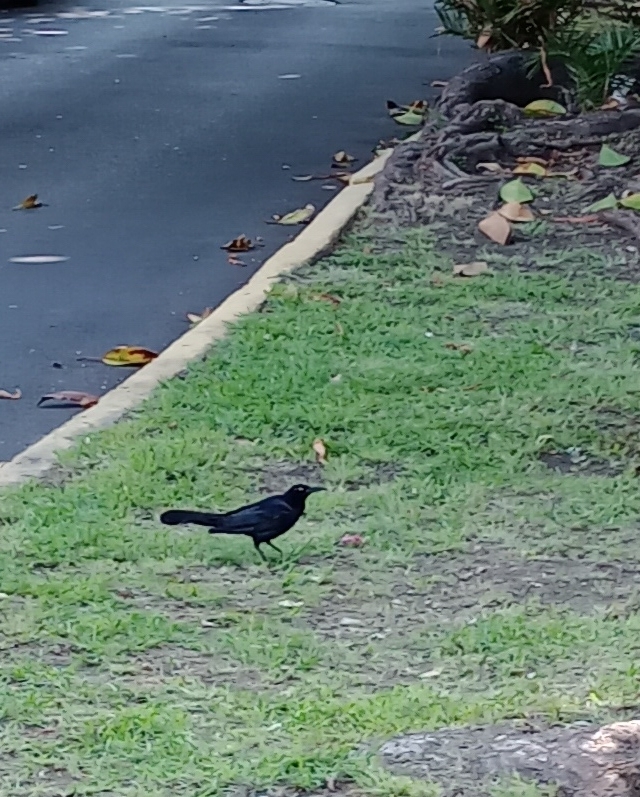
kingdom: Animalia
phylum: Chordata
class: Aves
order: Passeriformes
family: Icteridae
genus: Quiscalus
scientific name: Quiscalus mexicanus
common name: Great-tailed grackle
